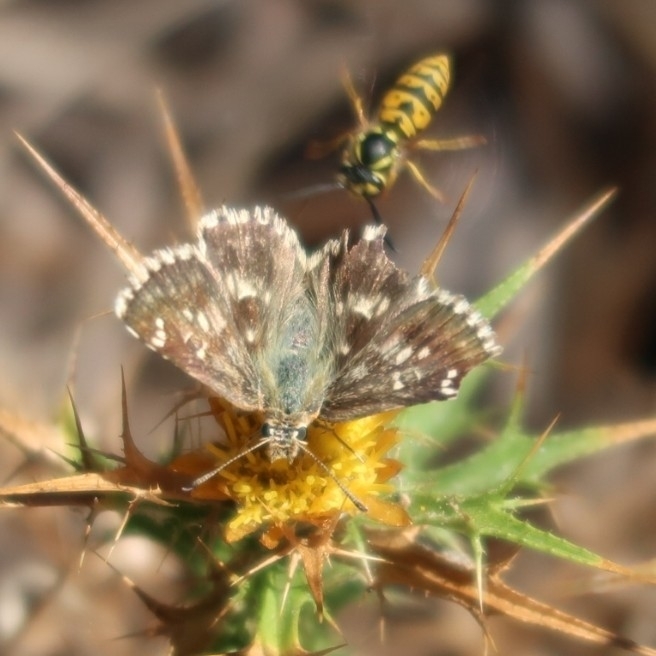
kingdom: Animalia
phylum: Arthropoda
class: Insecta
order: Lepidoptera
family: Hesperiidae
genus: Syrichtus
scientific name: Syrichtus proto
